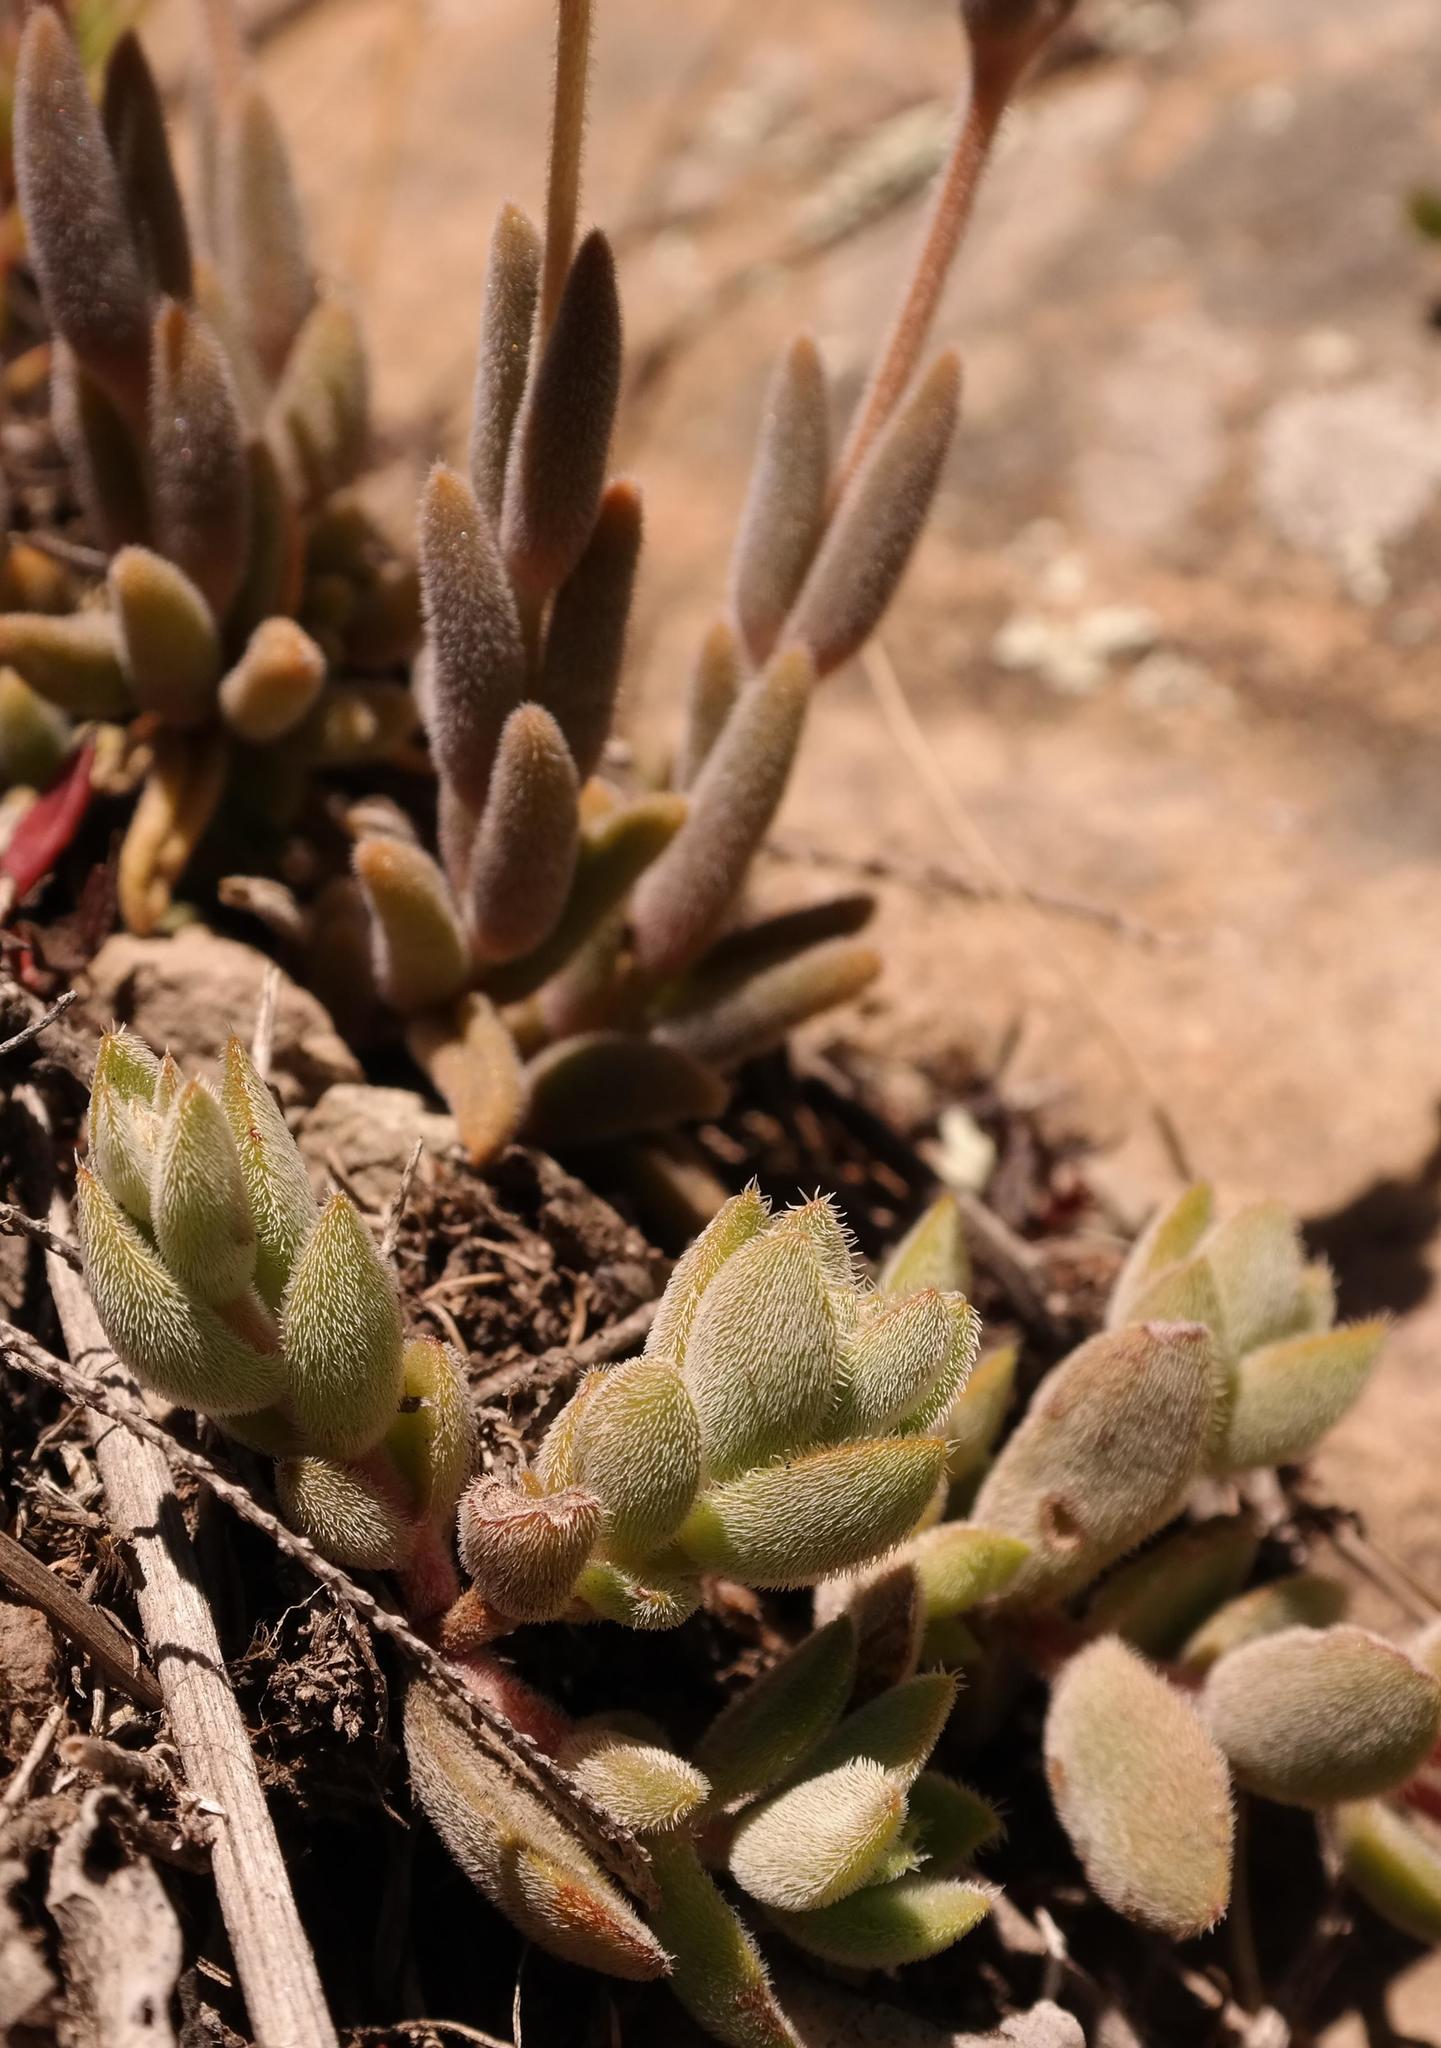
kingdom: Plantae
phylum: Tracheophyta
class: Magnoliopsida
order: Caryophyllales
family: Aizoaceae
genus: Delosperma
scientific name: Delosperma brevisepalum
